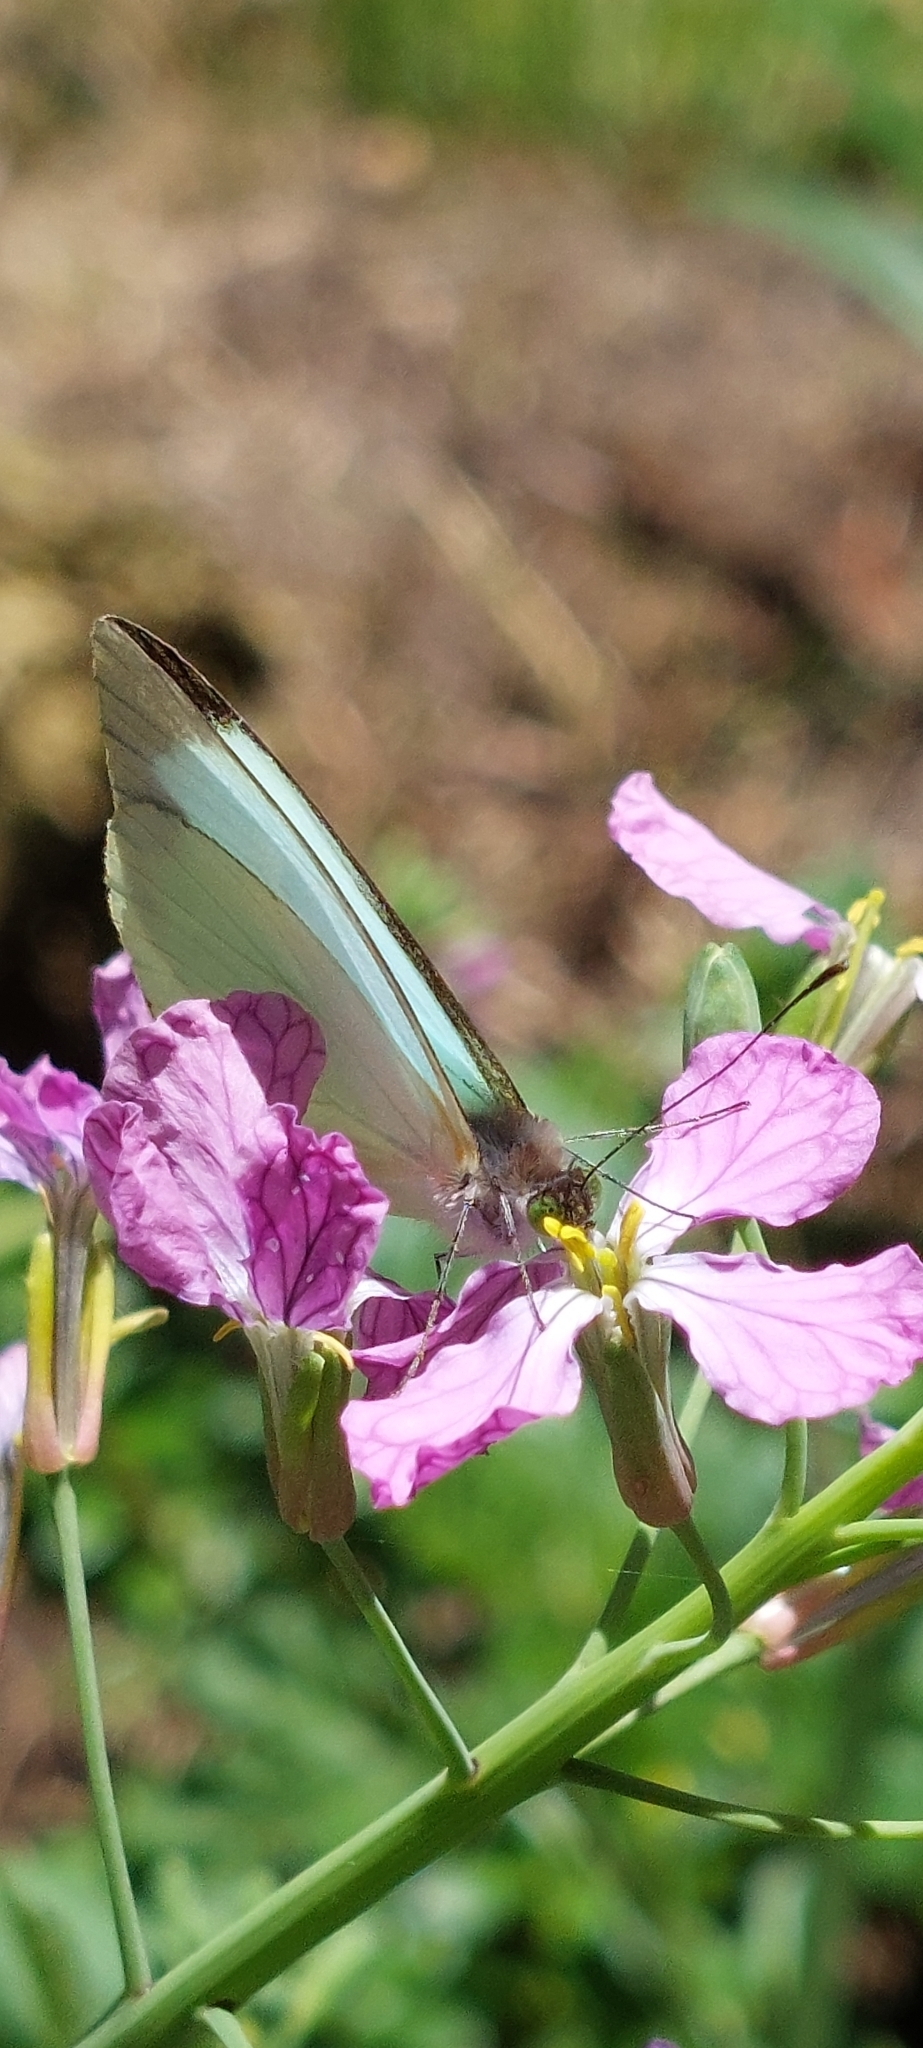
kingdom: Plantae
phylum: Tracheophyta
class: Magnoliopsida
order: Brassicales
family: Brassicaceae
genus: Raphanus
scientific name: Raphanus sativus
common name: Cultivated radish
